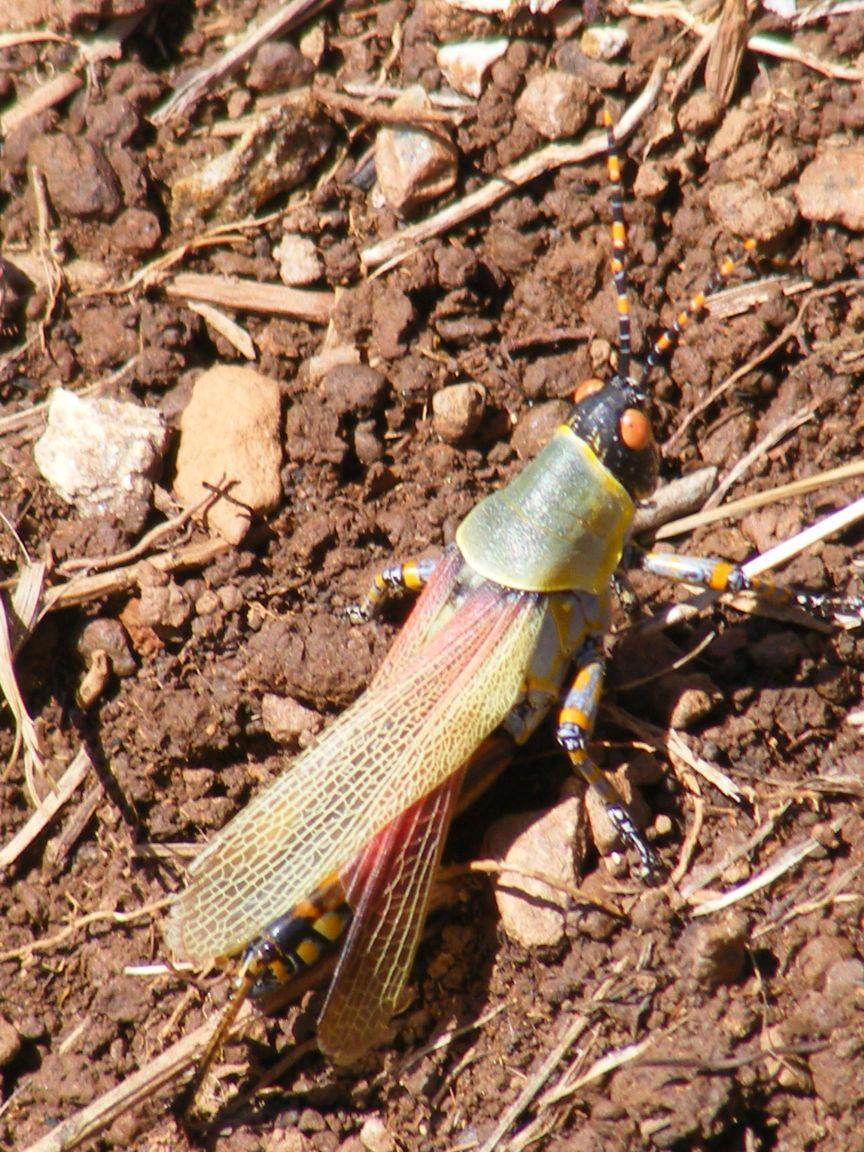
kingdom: Animalia
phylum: Arthropoda
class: Insecta
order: Orthoptera
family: Pyrgomorphidae
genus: Zonocerus
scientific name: Zonocerus elegans
